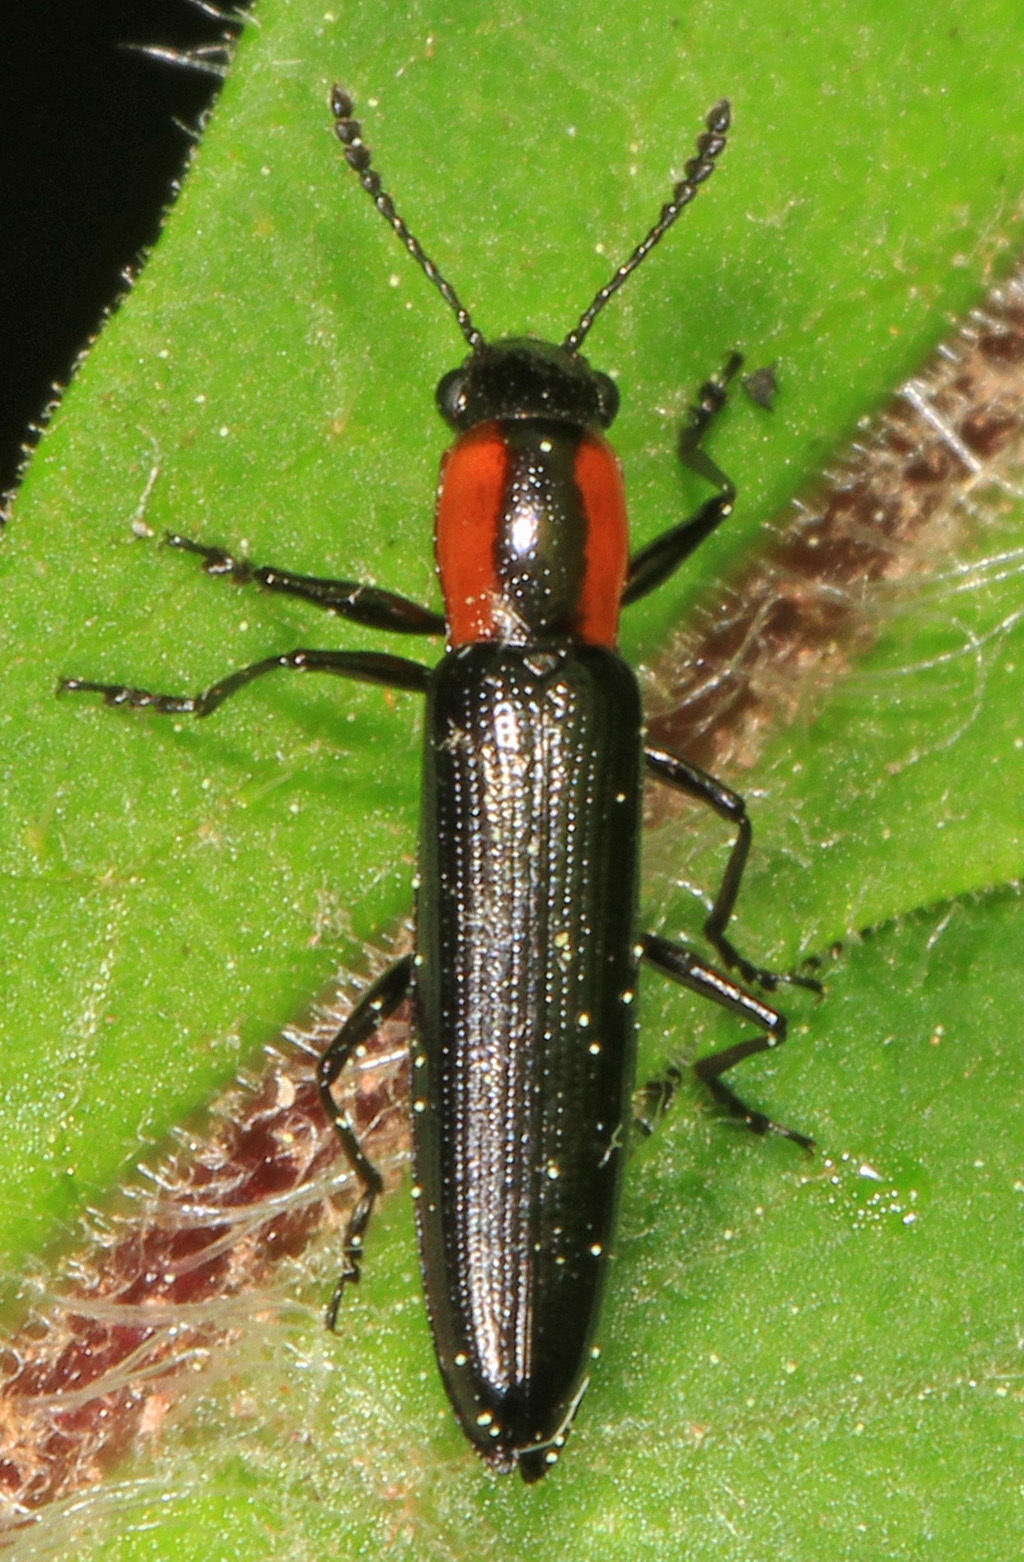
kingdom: Animalia
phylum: Arthropoda
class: Insecta
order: Coleoptera
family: Erotylidae
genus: Acropteroxys
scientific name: Acropteroxys gracilis
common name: Slender lizard beetle
